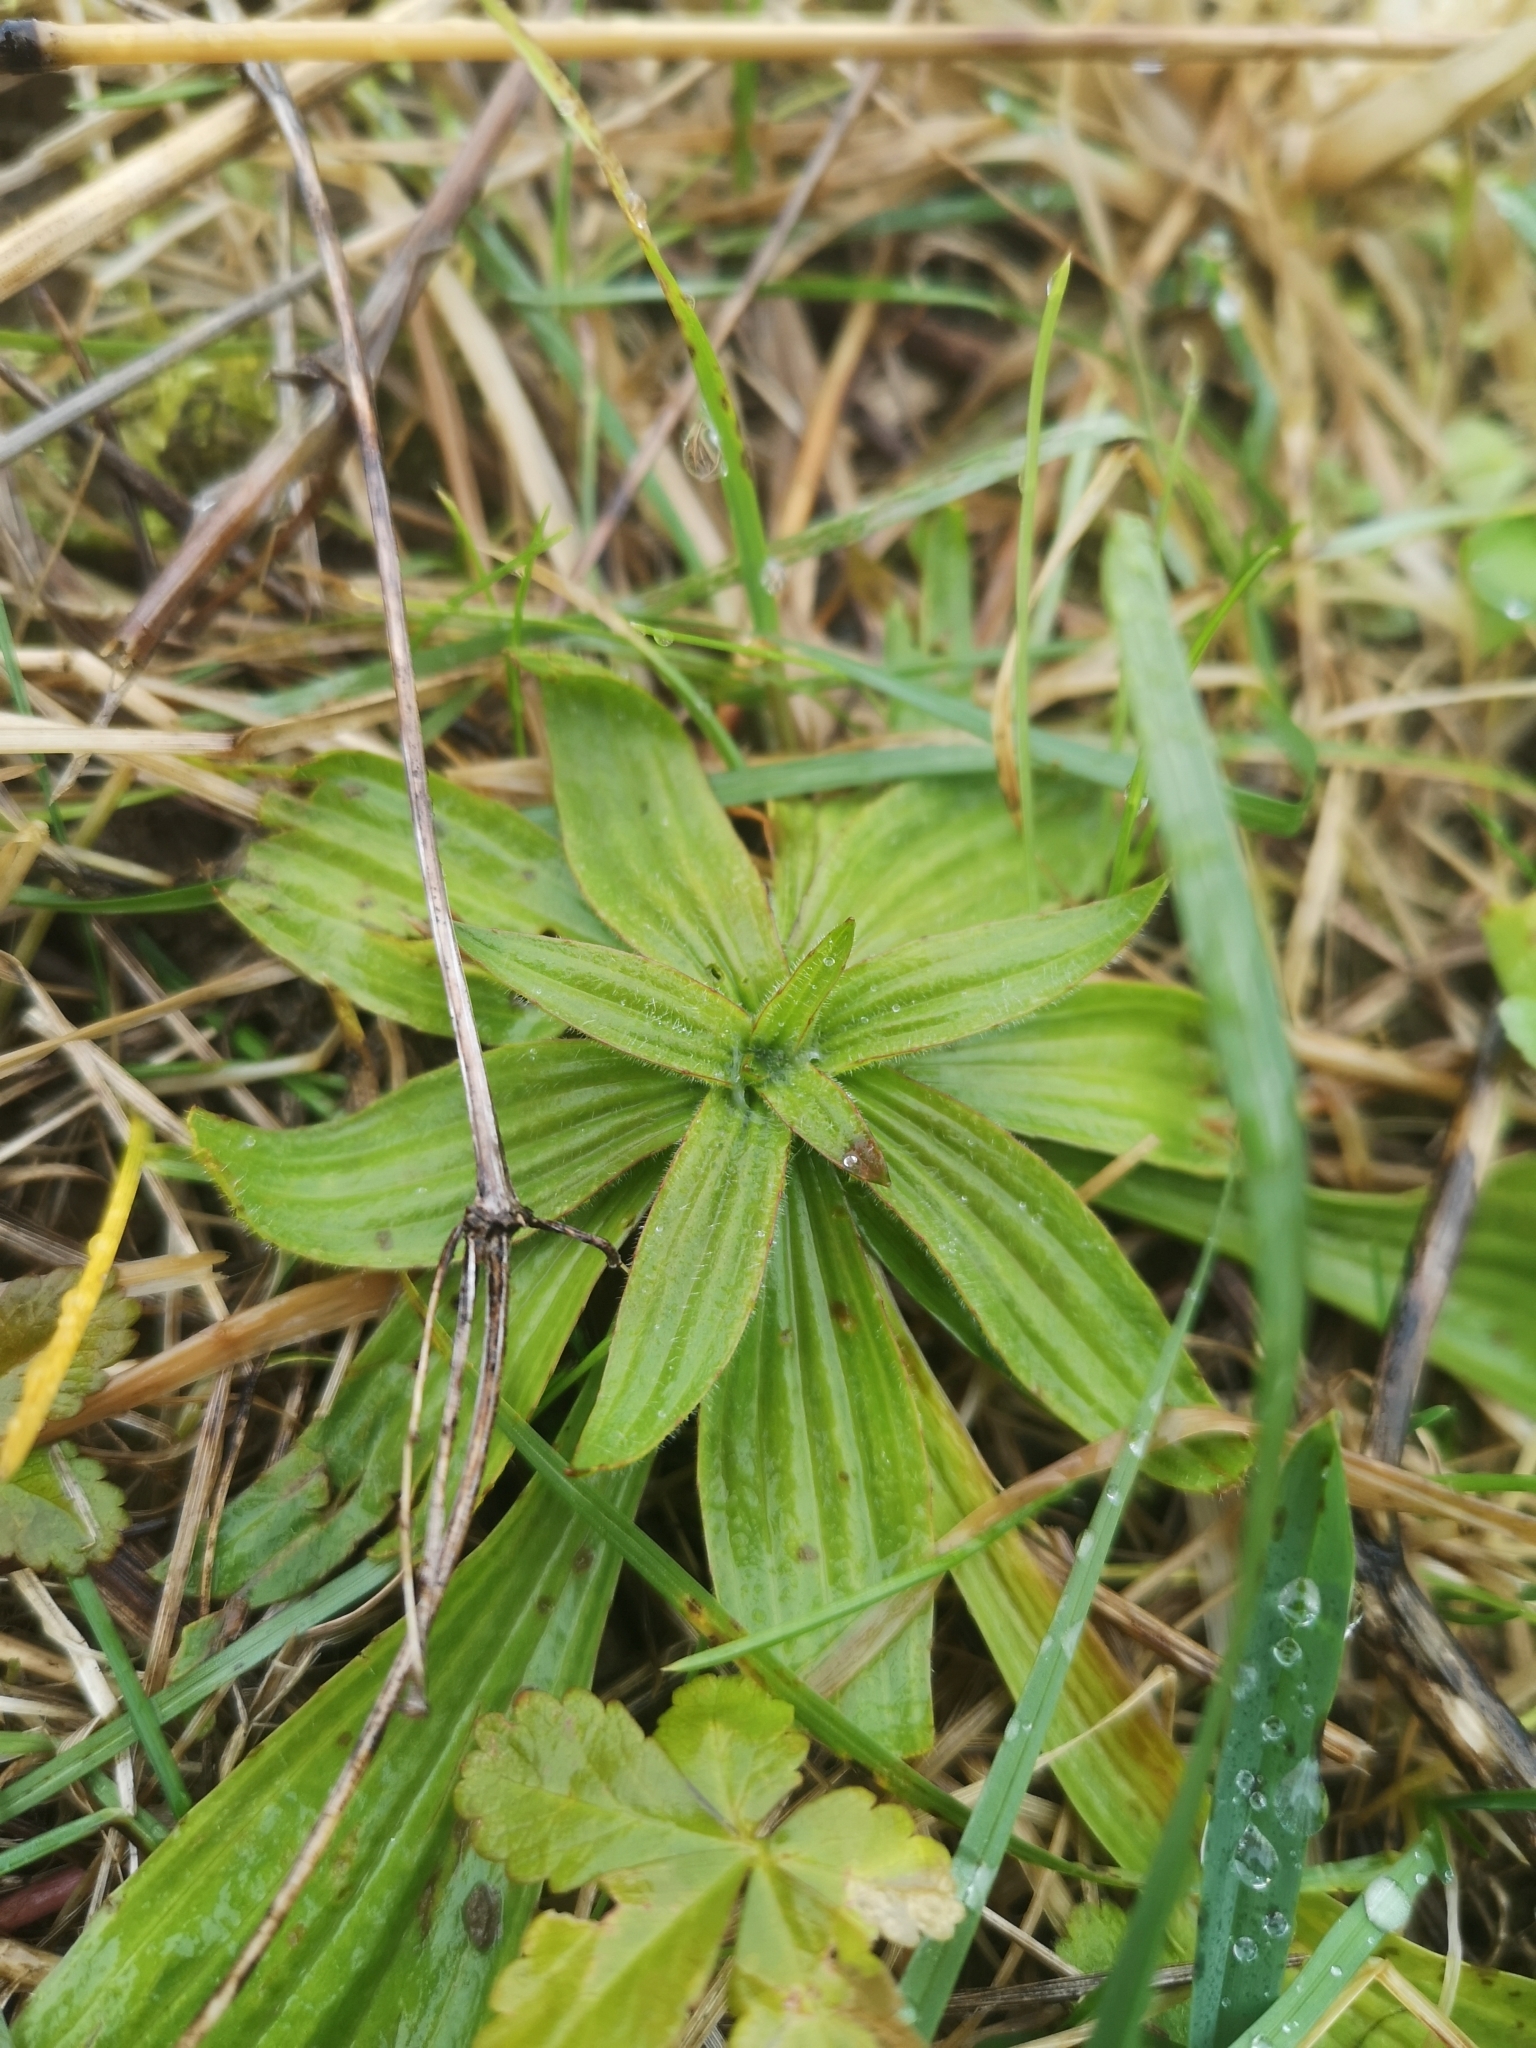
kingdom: Plantae
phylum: Tracheophyta
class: Magnoliopsida
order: Lamiales
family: Plantaginaceae
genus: Plantago
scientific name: Plantago lanceolata
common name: Ribwort plantain
